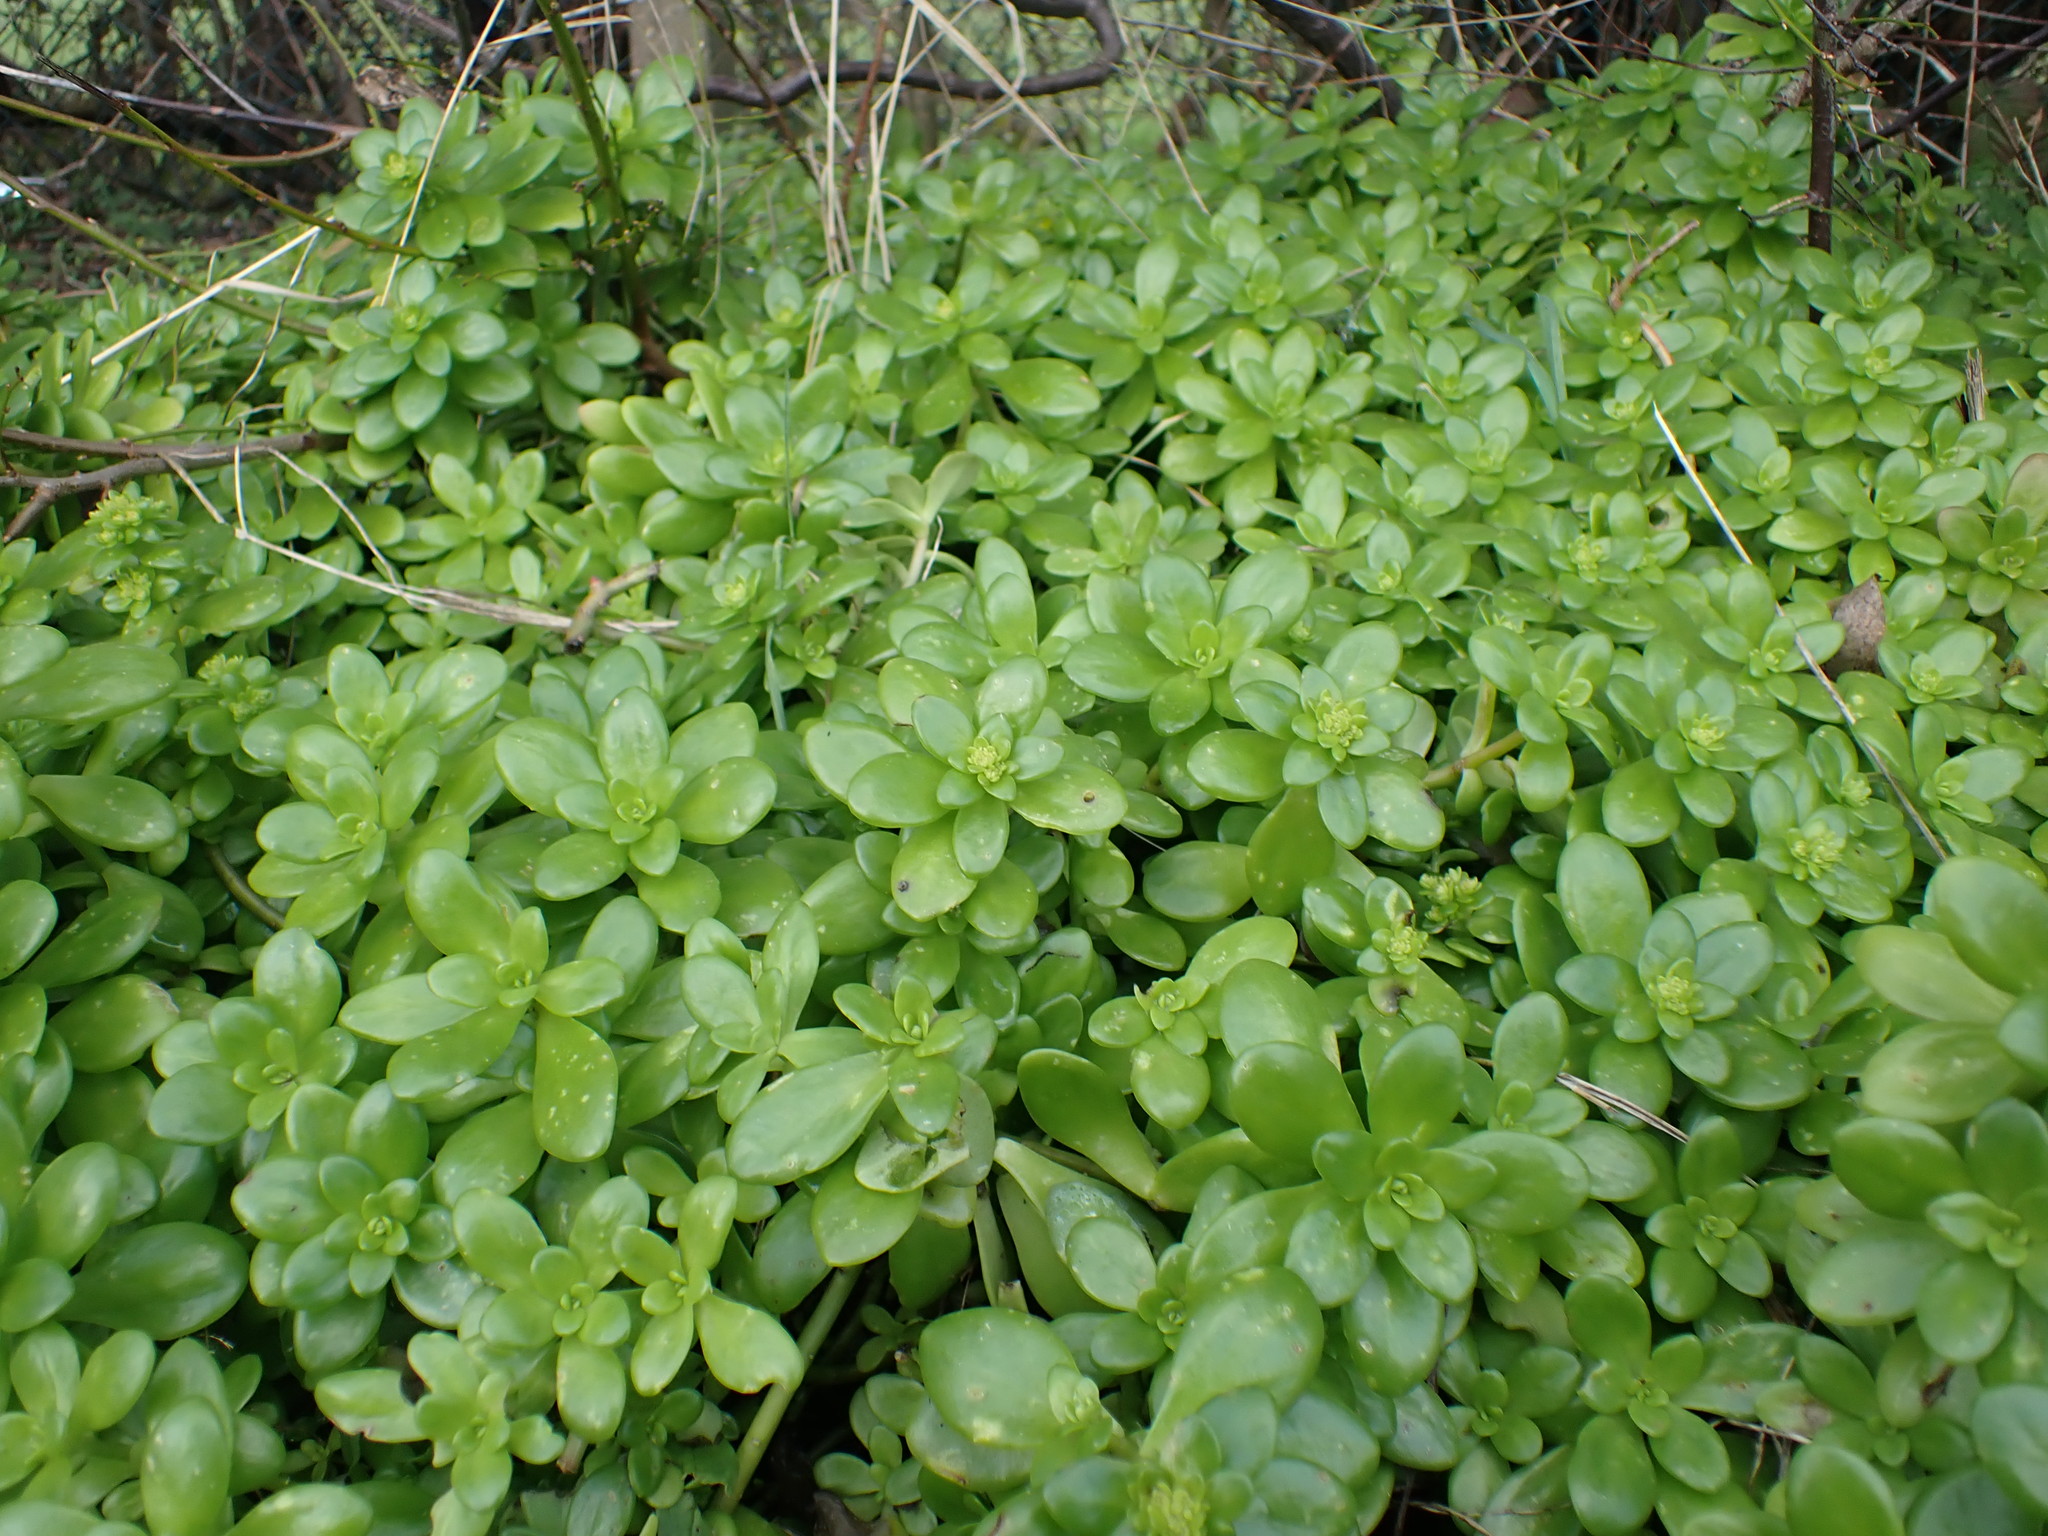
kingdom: Plantae
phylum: Tracheophyta
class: Magnoliopsida
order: Saxifragales
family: Crassulaceae
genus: Sedum
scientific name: Sedum confusum
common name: Lesser mexican-stonecrop
